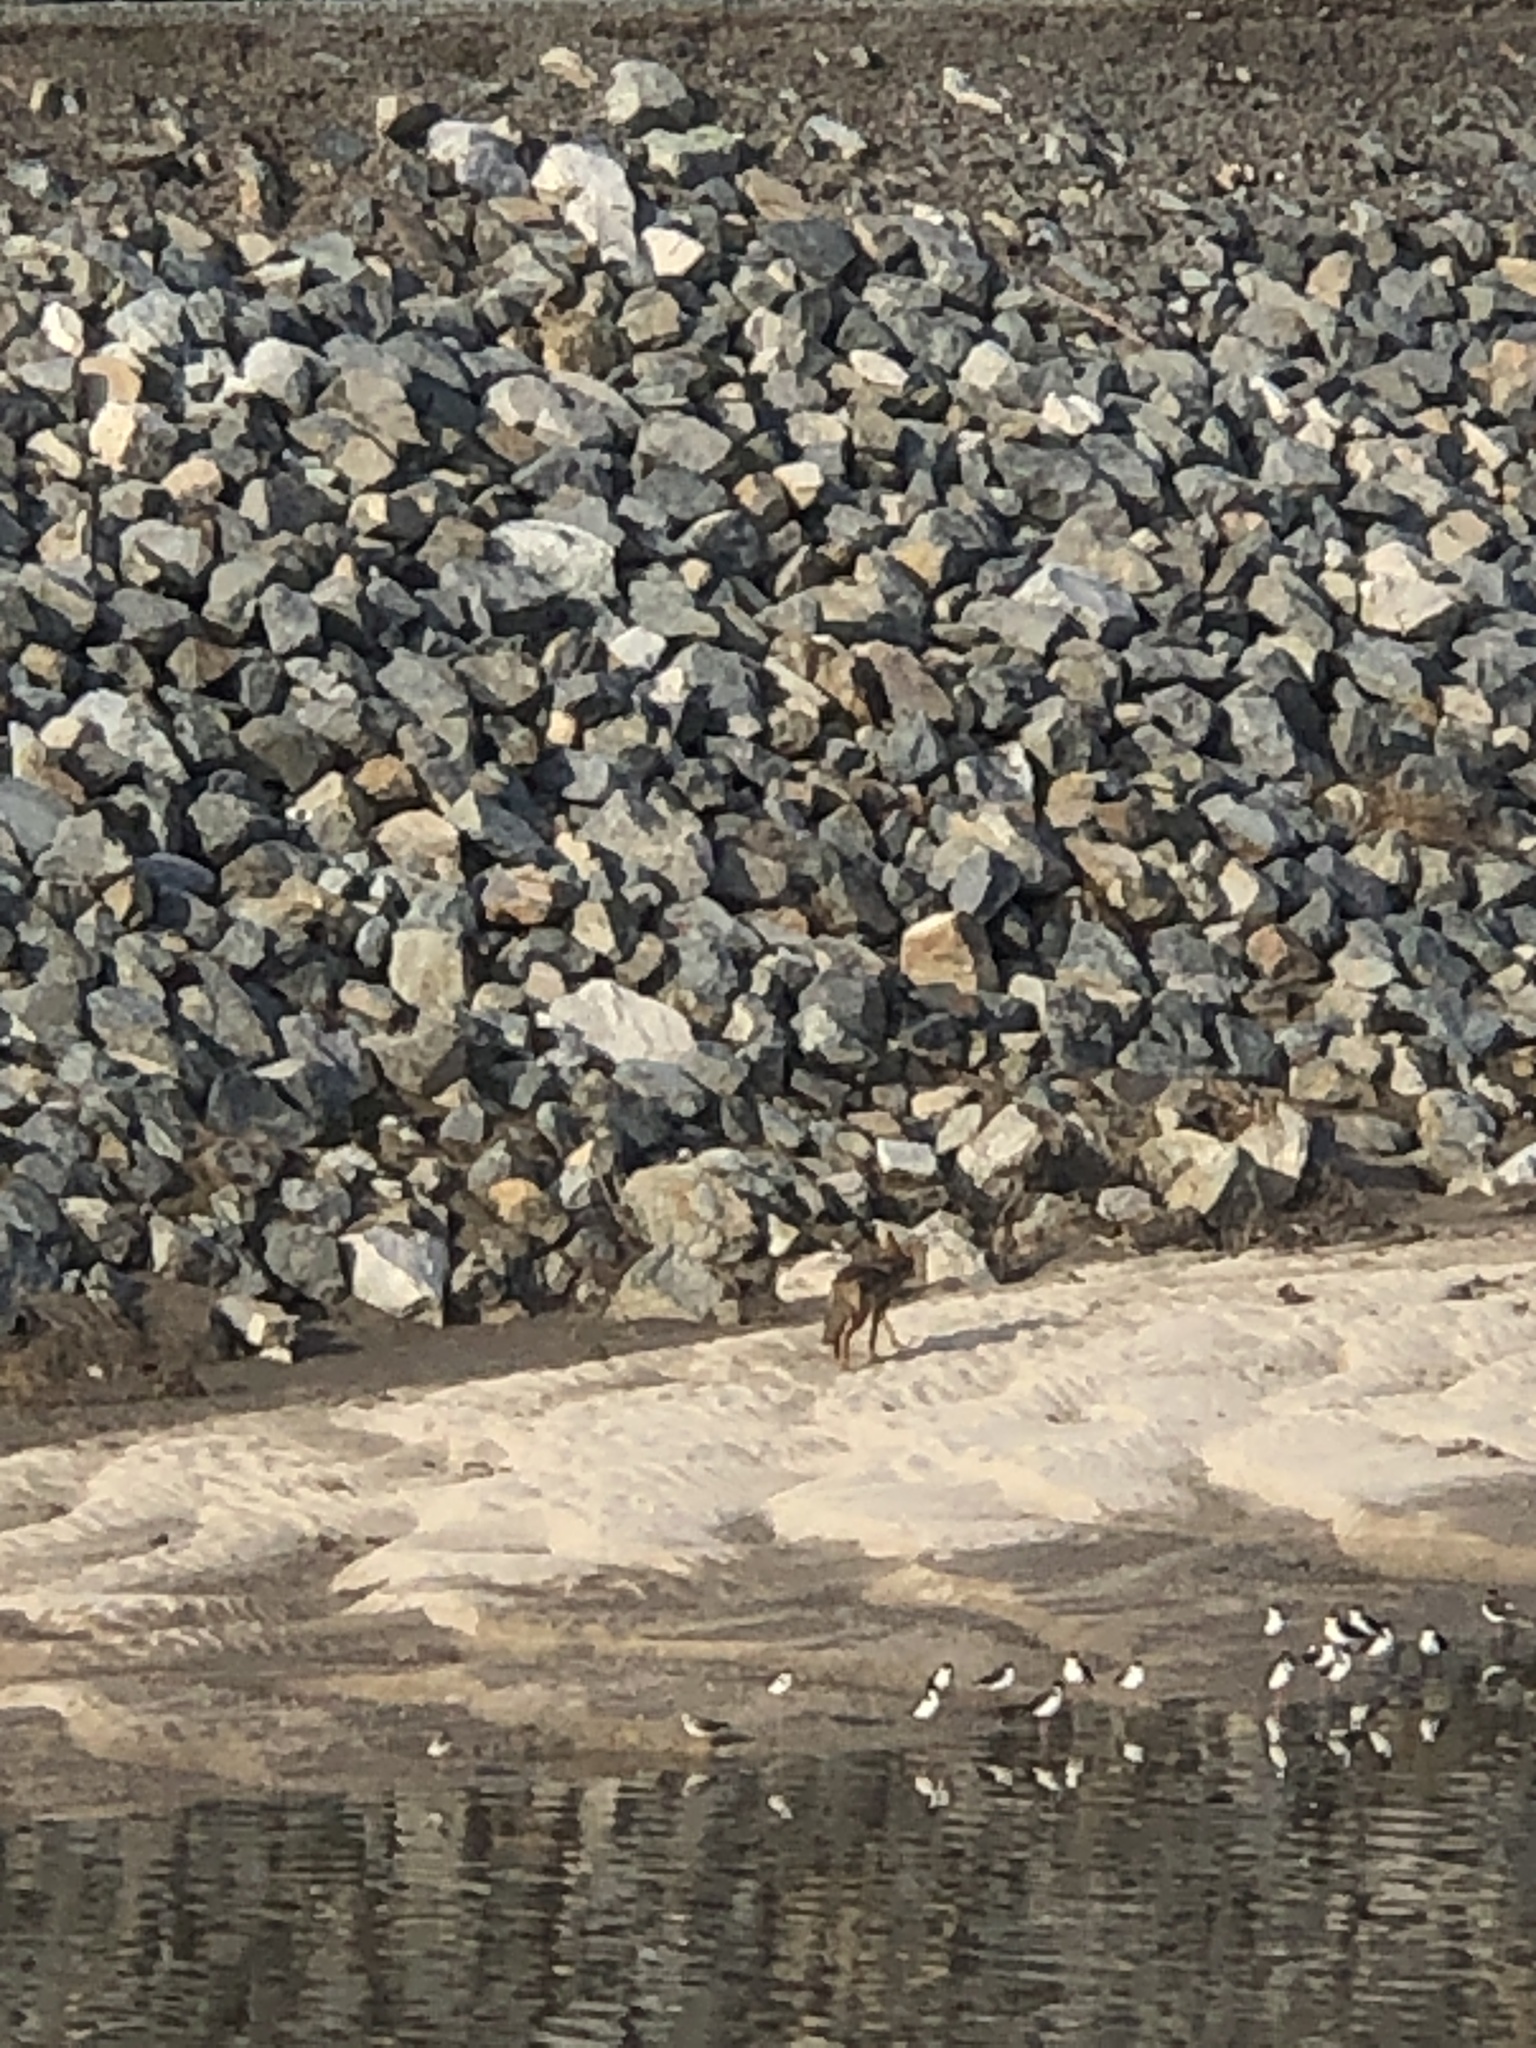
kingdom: Animalia
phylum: Chordata
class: Mammalia
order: Carnivora
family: Canidae
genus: Canis
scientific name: Canis latrans
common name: Coyote
